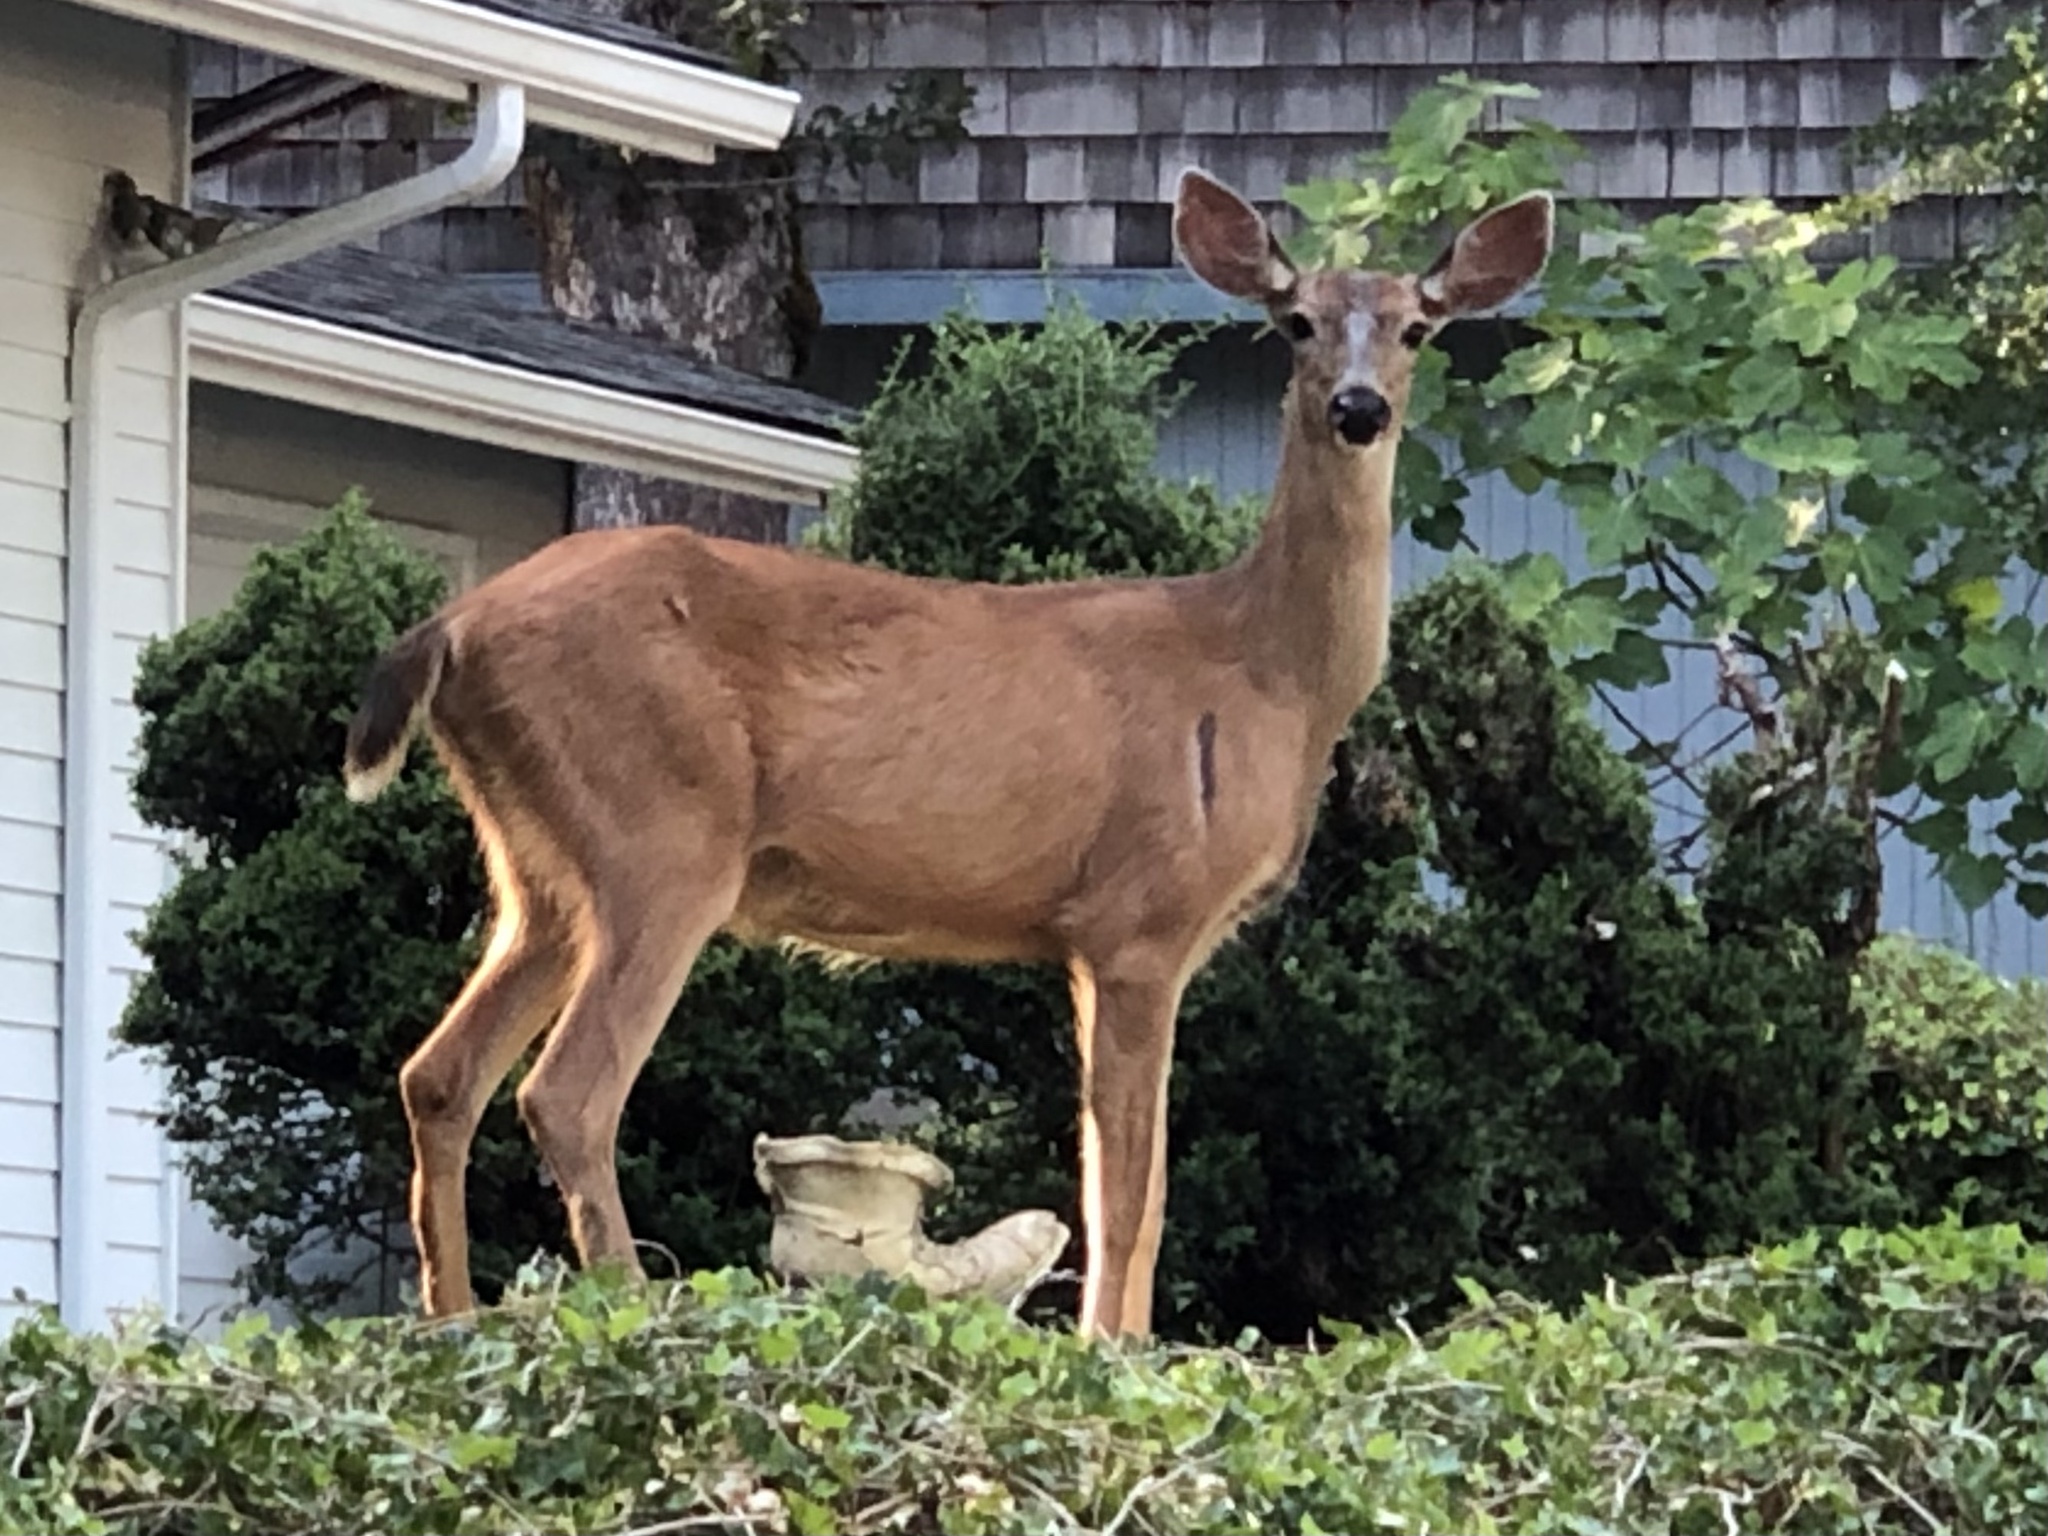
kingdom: Animalia
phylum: Chordata
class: Mammalia
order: Artiodactyla
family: Cervidae
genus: Odocoileus
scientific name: Odocoileus hemionus
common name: Mule deer
